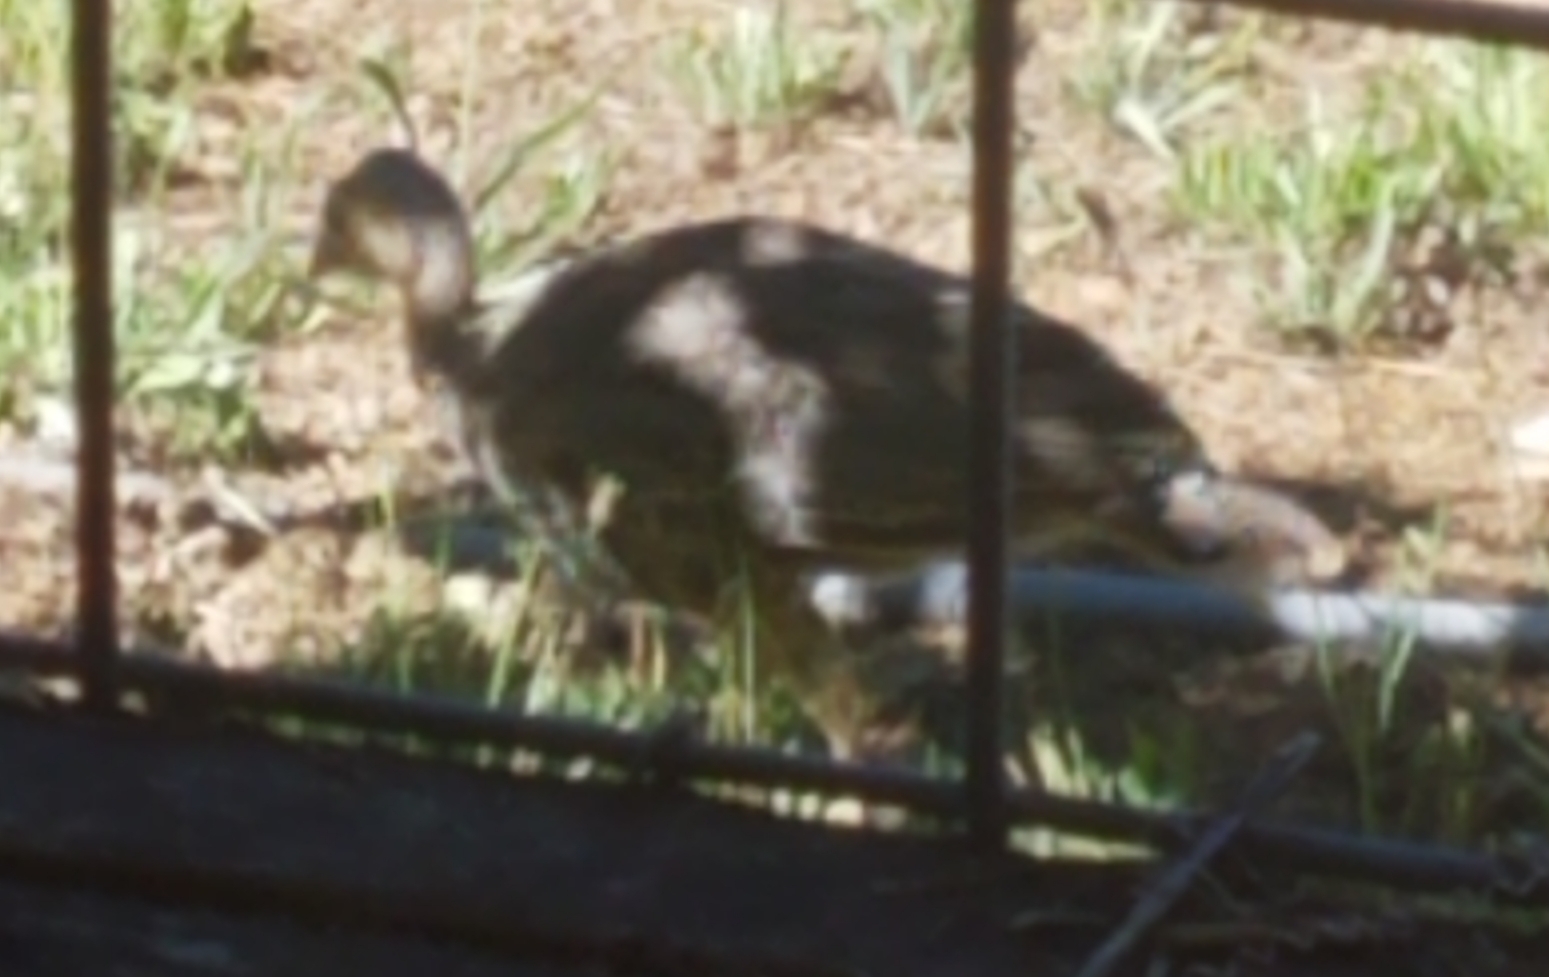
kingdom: Animalia
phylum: Chordata
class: Aves
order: Galliformes
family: Phasianidae
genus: Meleagris
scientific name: Meleagris gallopavo
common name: Wild turkey
